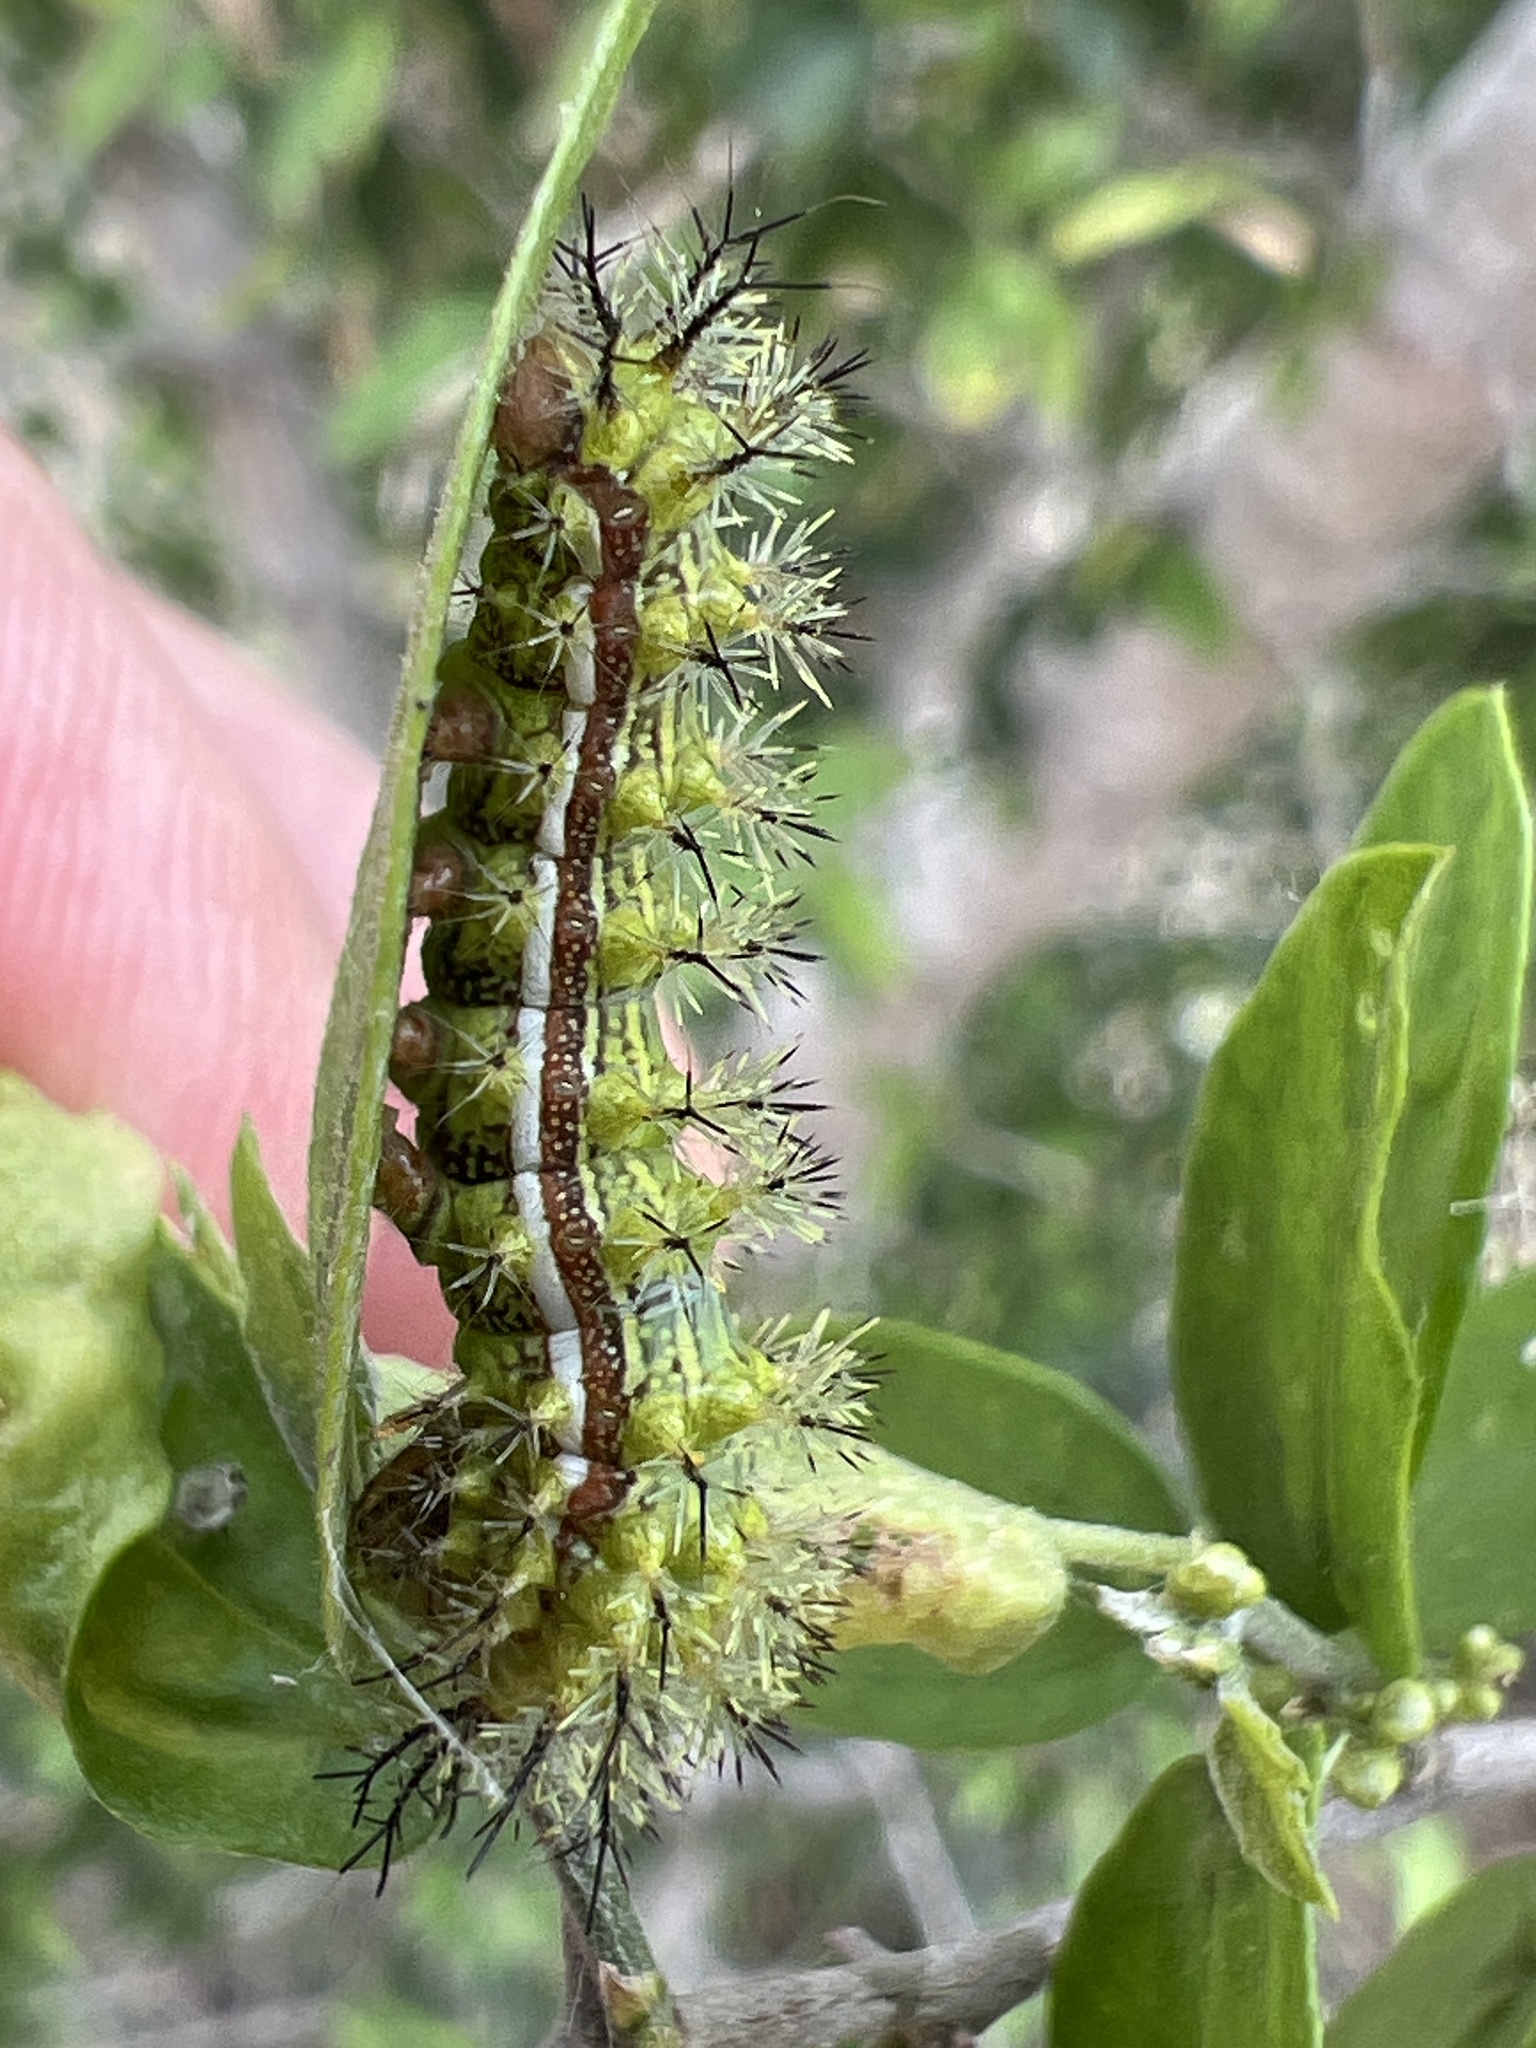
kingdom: Animalia
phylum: Arthropoda
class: Insecta
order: Lepidoptera
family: Saturniidae
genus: Automeris
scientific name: Automeris io
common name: Io moth
